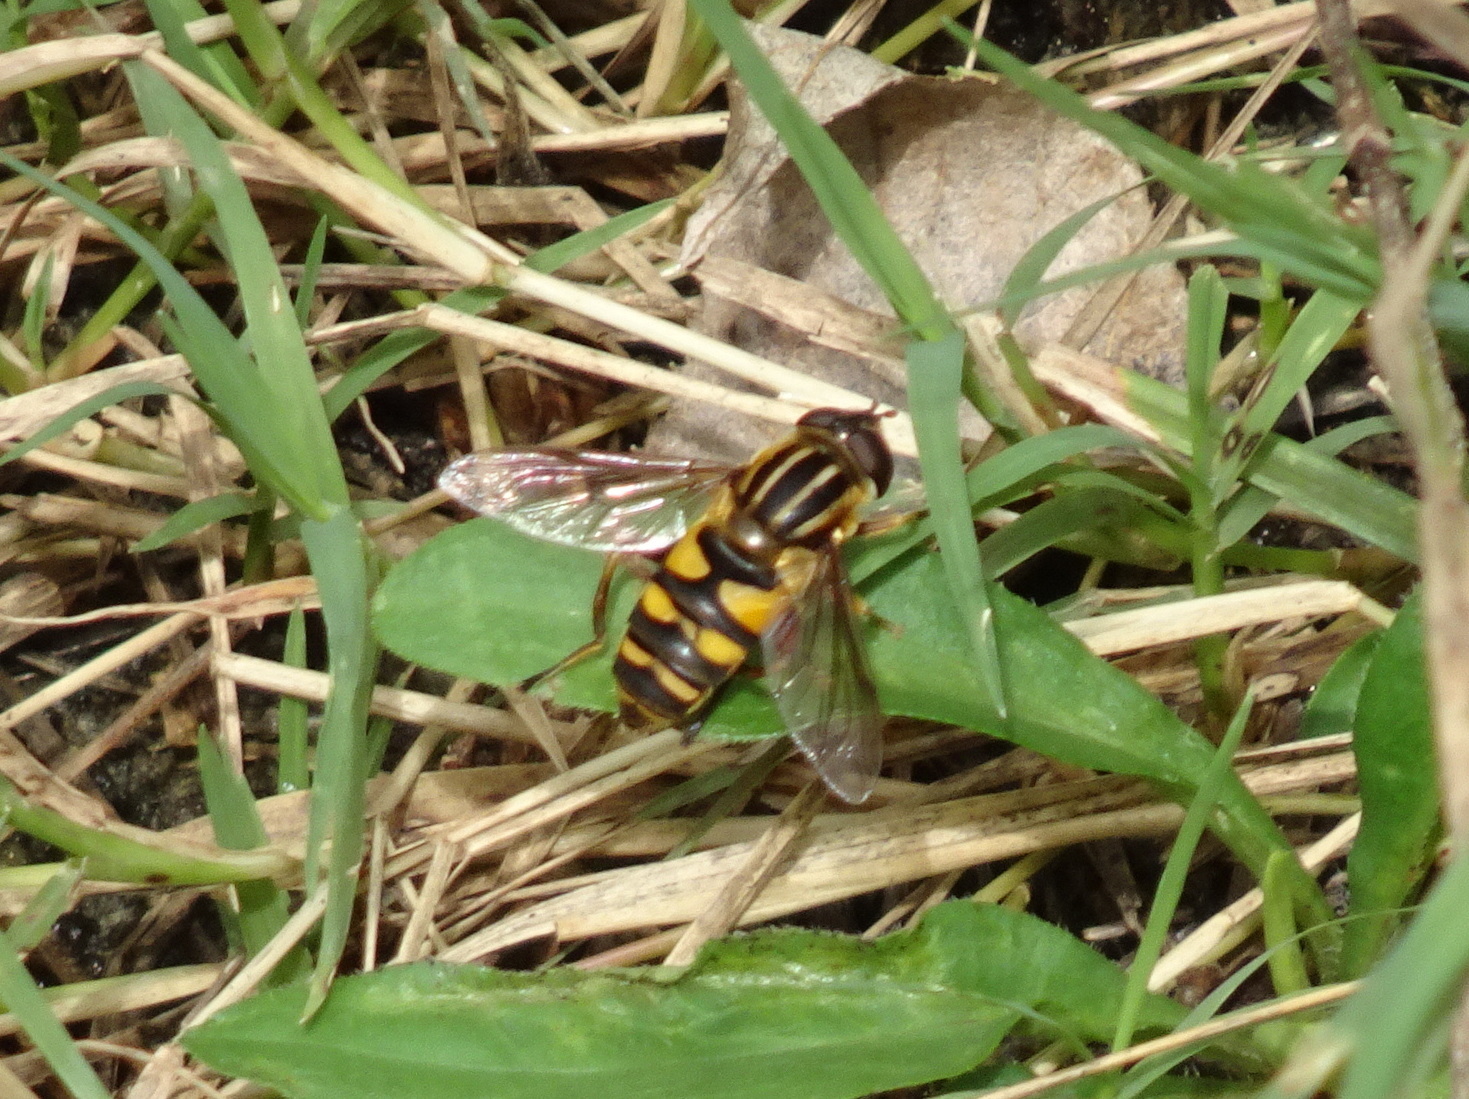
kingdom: Animalia
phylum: Arthropoda
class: Insecta
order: Diptera
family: Syrphidae
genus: Helophilus
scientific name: Helophilus fasciatus
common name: Narrow-headed marsh fly
